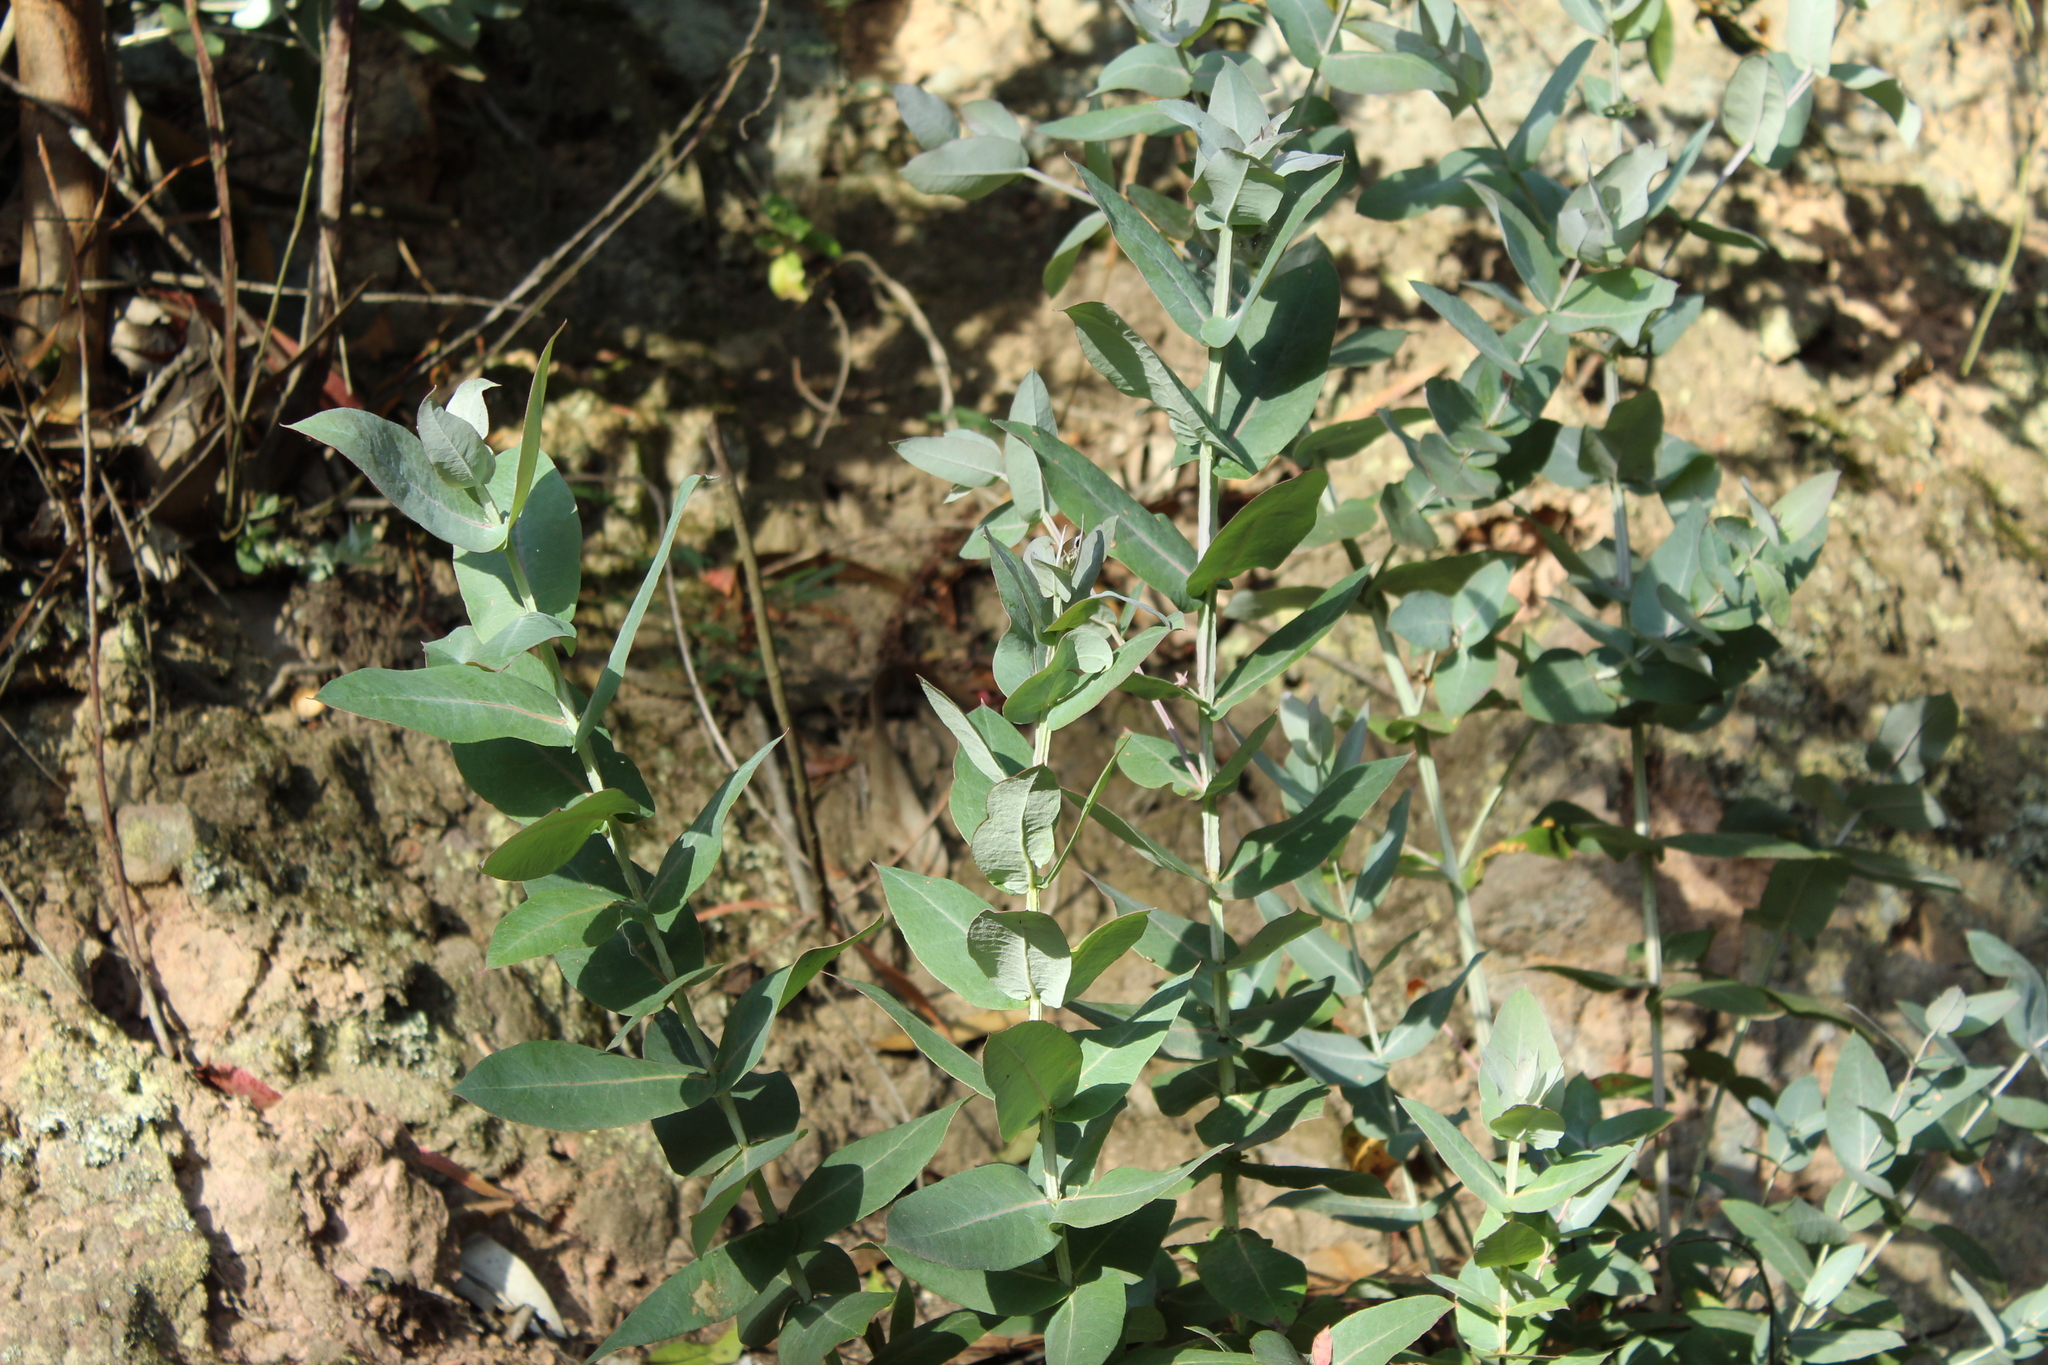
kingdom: Plantae
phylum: Tracheophyta
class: Magnoliopsida
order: Myrtales
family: Myrtaceae
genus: Eucalyptus
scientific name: Eucalyptus globulus
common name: Southern blue-gum
